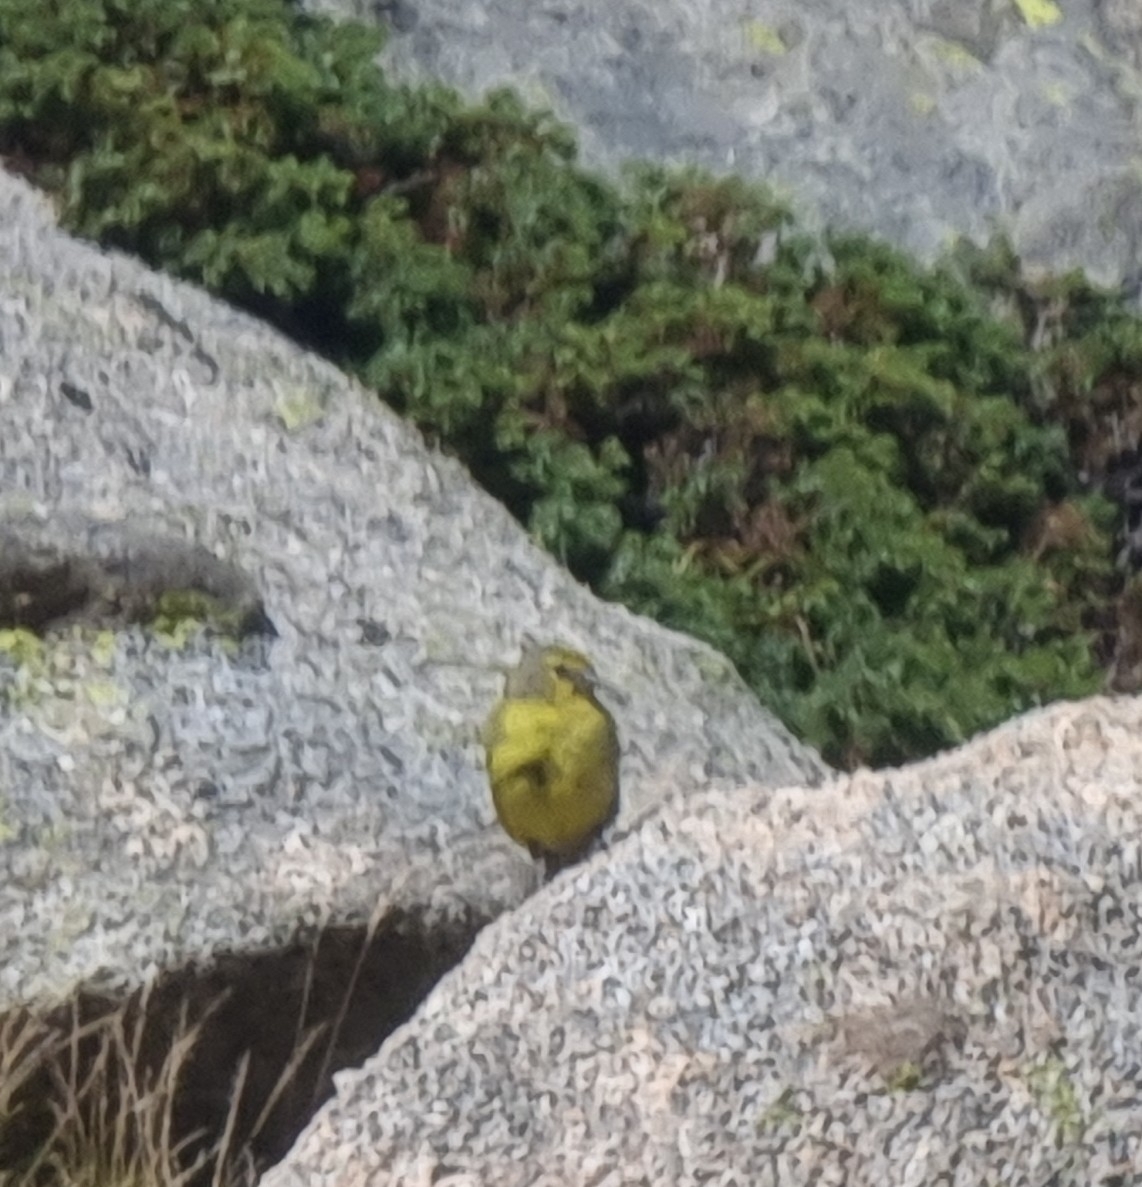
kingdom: Animalia
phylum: Chordata
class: Aves
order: Passeriformes
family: Fringillidae
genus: Carduelis
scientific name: Carduelis corsicana
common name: Corsican finch
